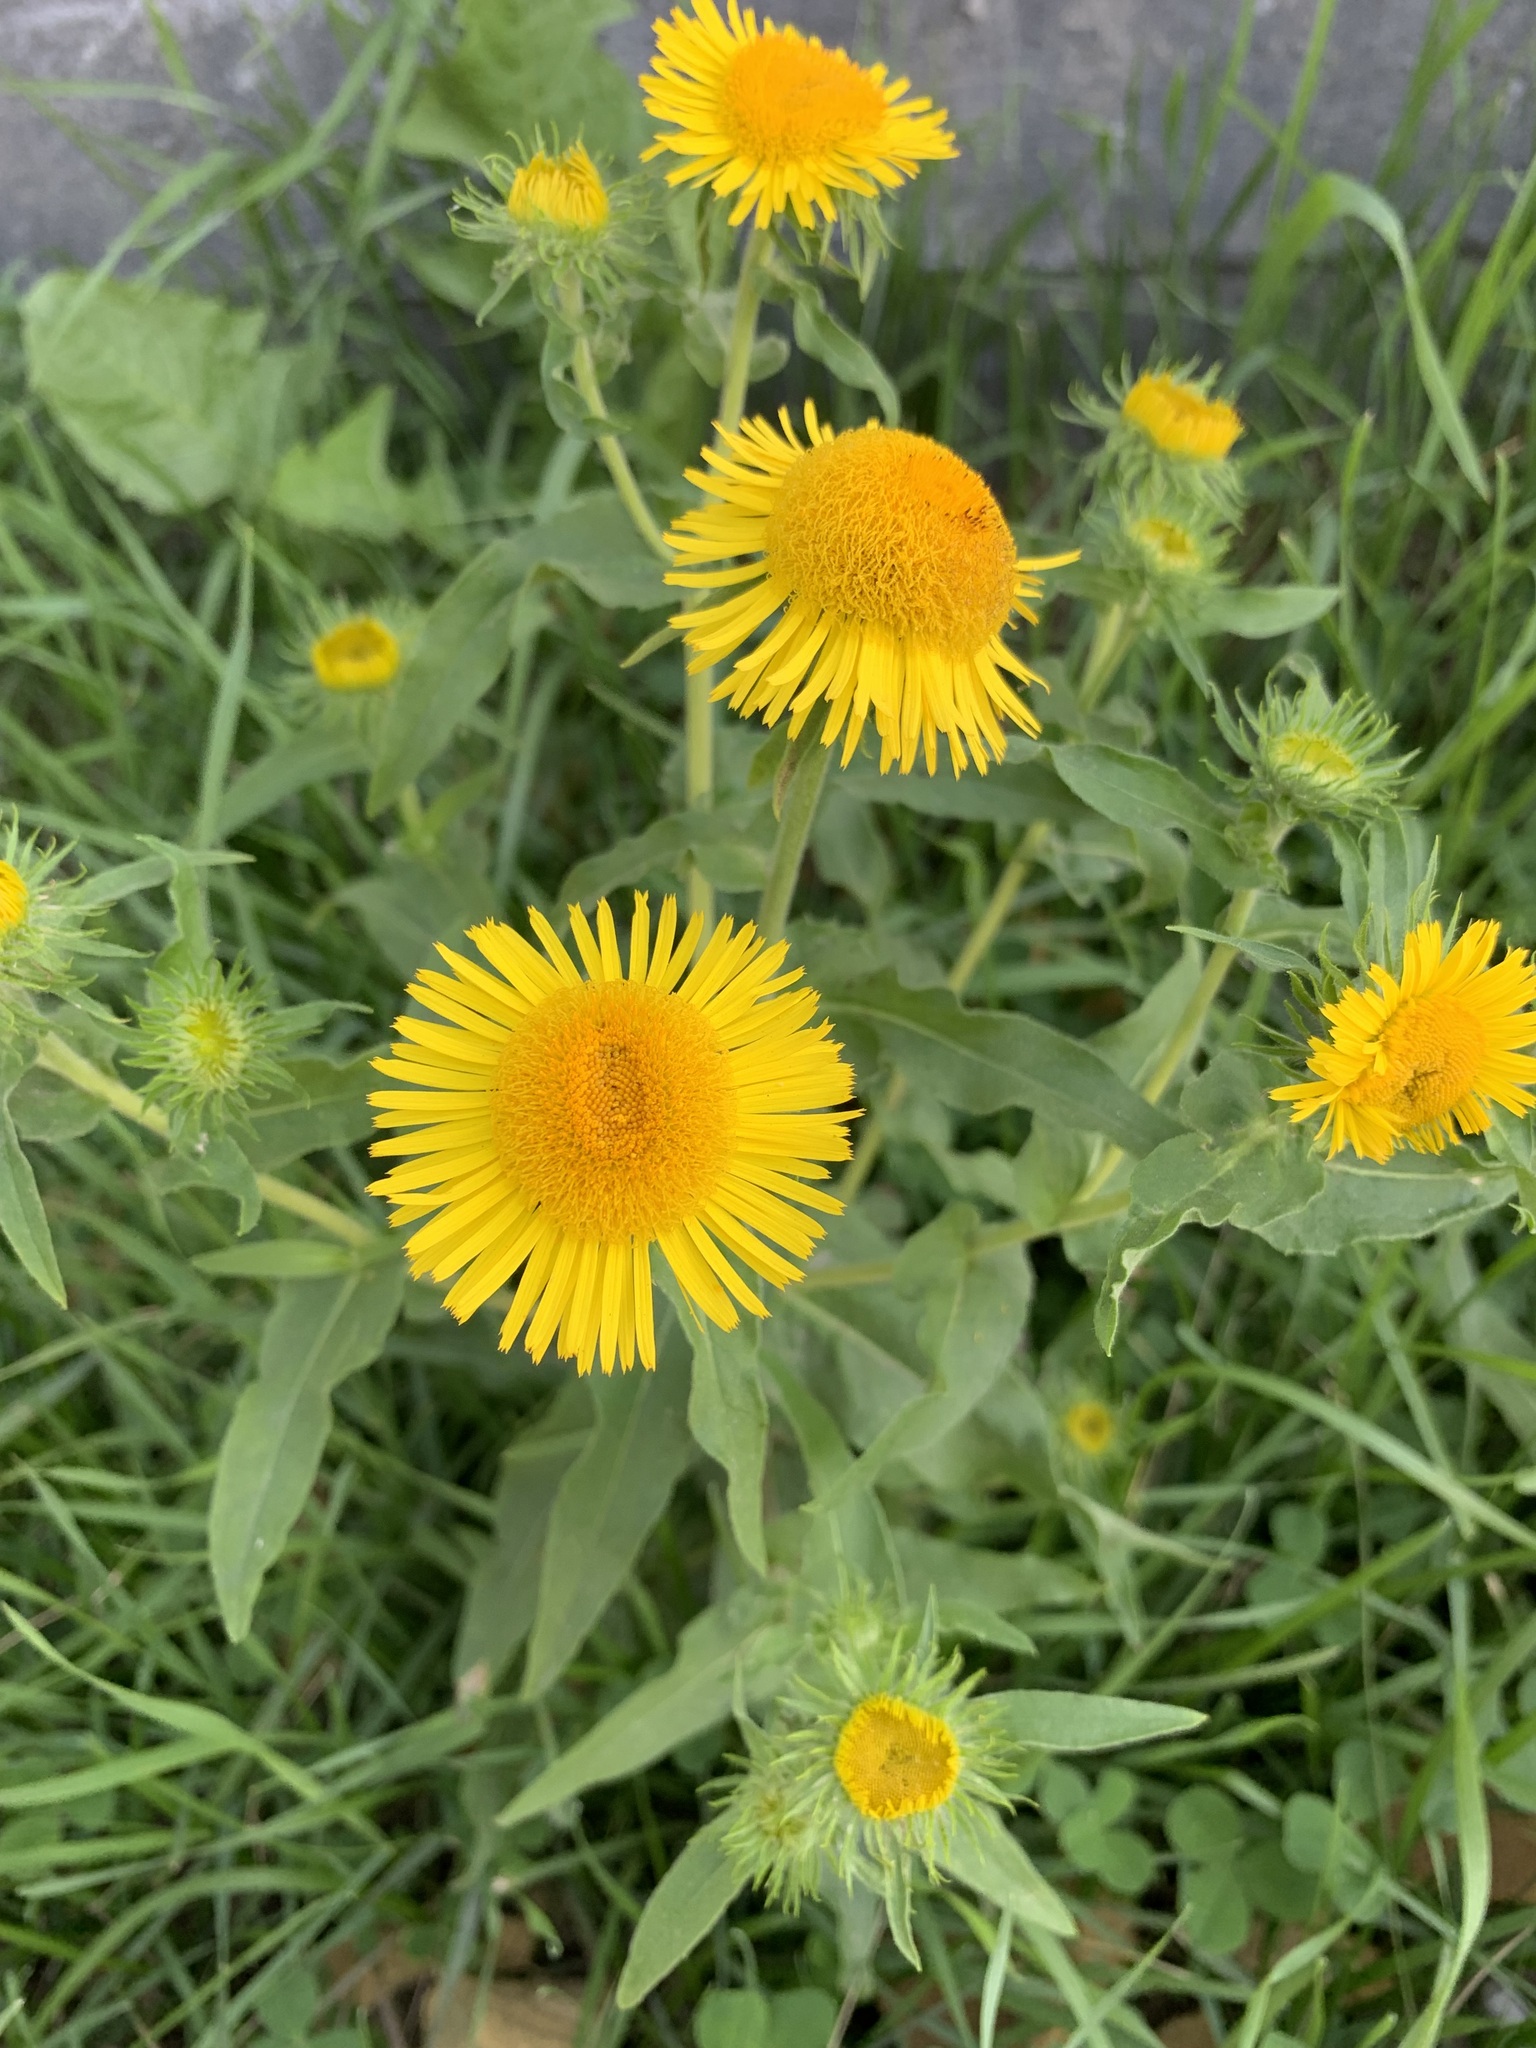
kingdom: Plantae
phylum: Tracheophyta
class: Magnoliopsida
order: Asterales
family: Asteraceae
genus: Pentanema
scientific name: Pentanema britannicum
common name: British elecampane
